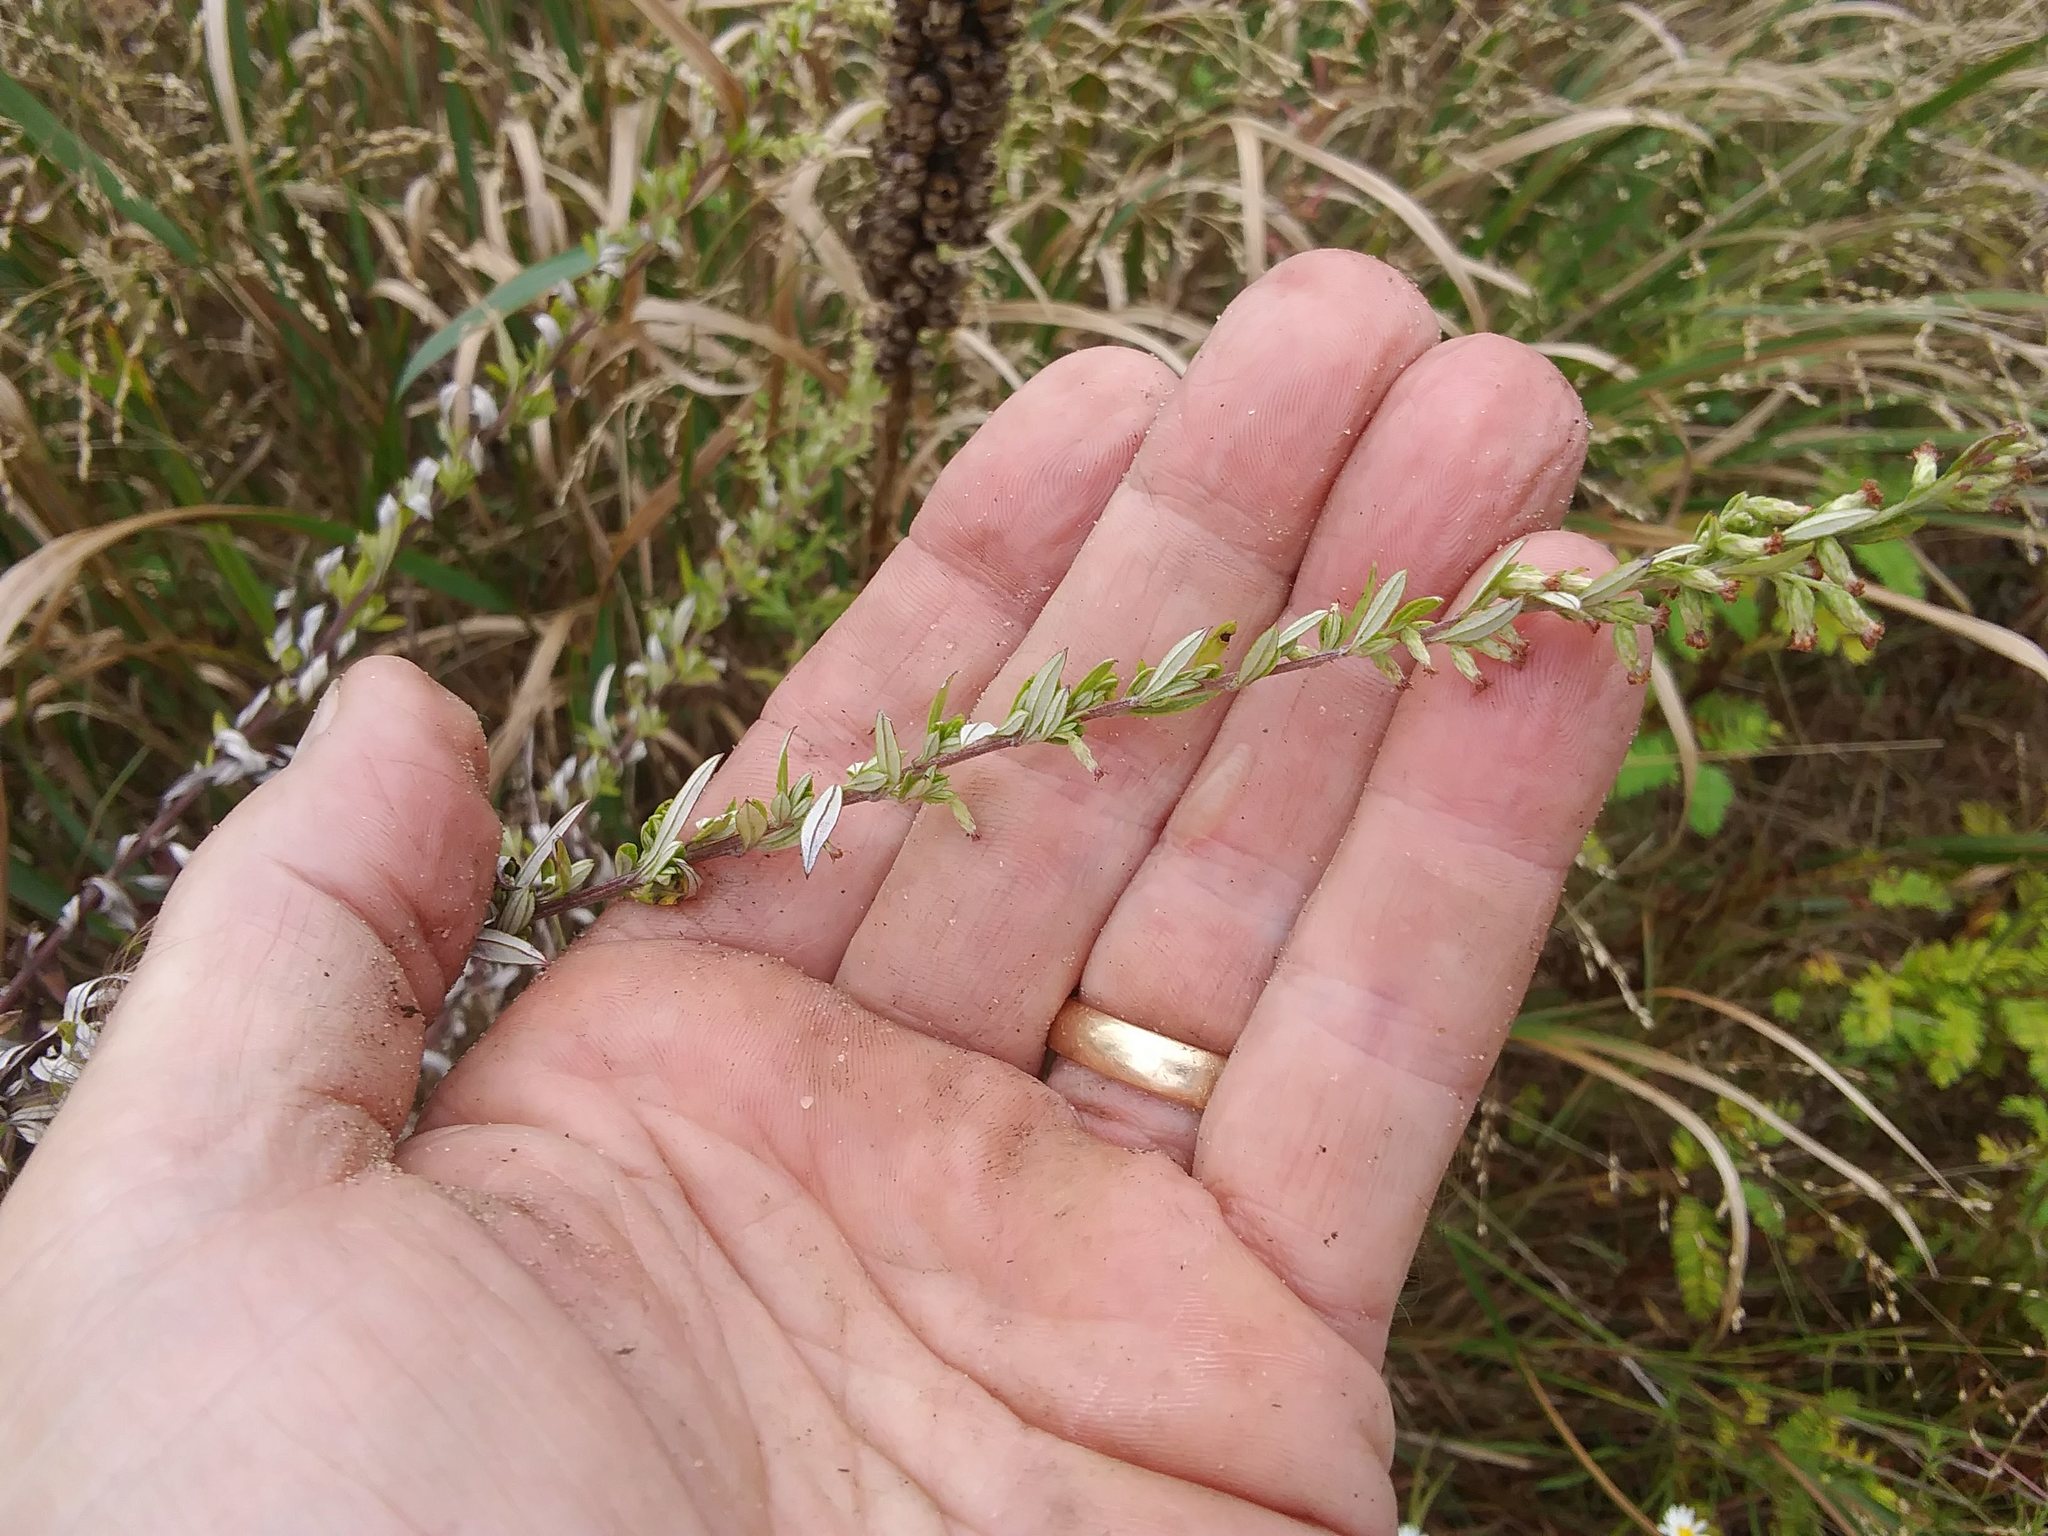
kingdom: Plantae
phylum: Tracheophyta
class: Magnoliopsida
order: Asterales
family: Asteraceae
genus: Artemisia
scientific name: Artemisia vulgaris
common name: Mugwort
